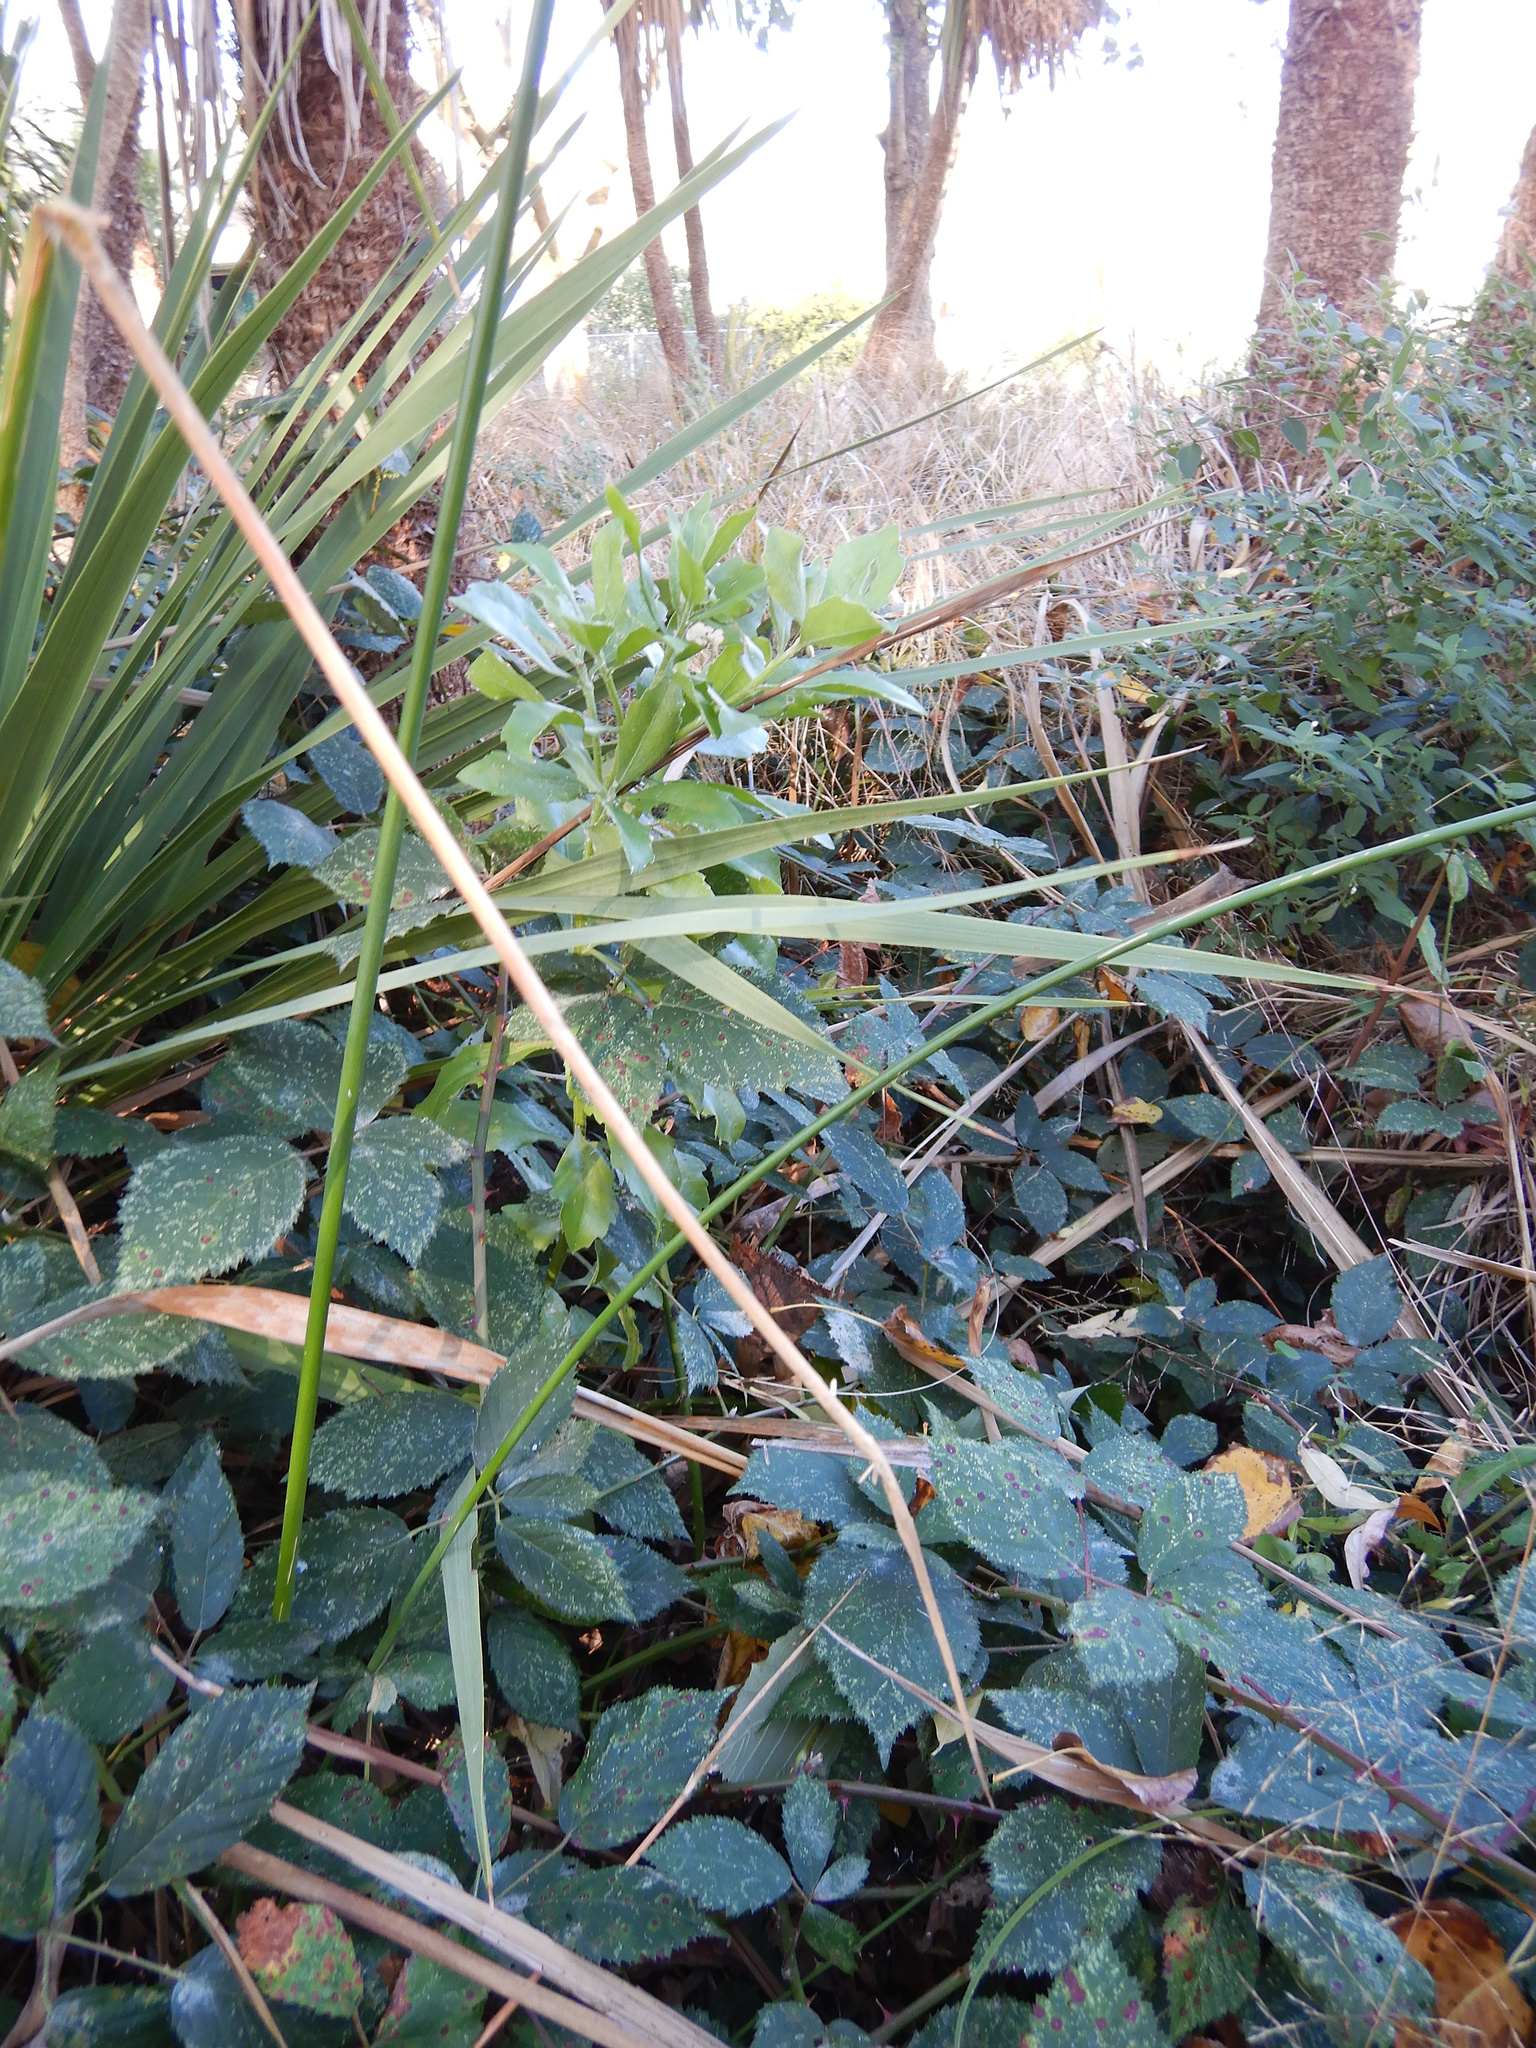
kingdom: Plantae
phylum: Tracheophyta
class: Magnoliopsida
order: Asterales
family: Asteraceae
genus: Osteospermum
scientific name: Osteospermum moniliferum
